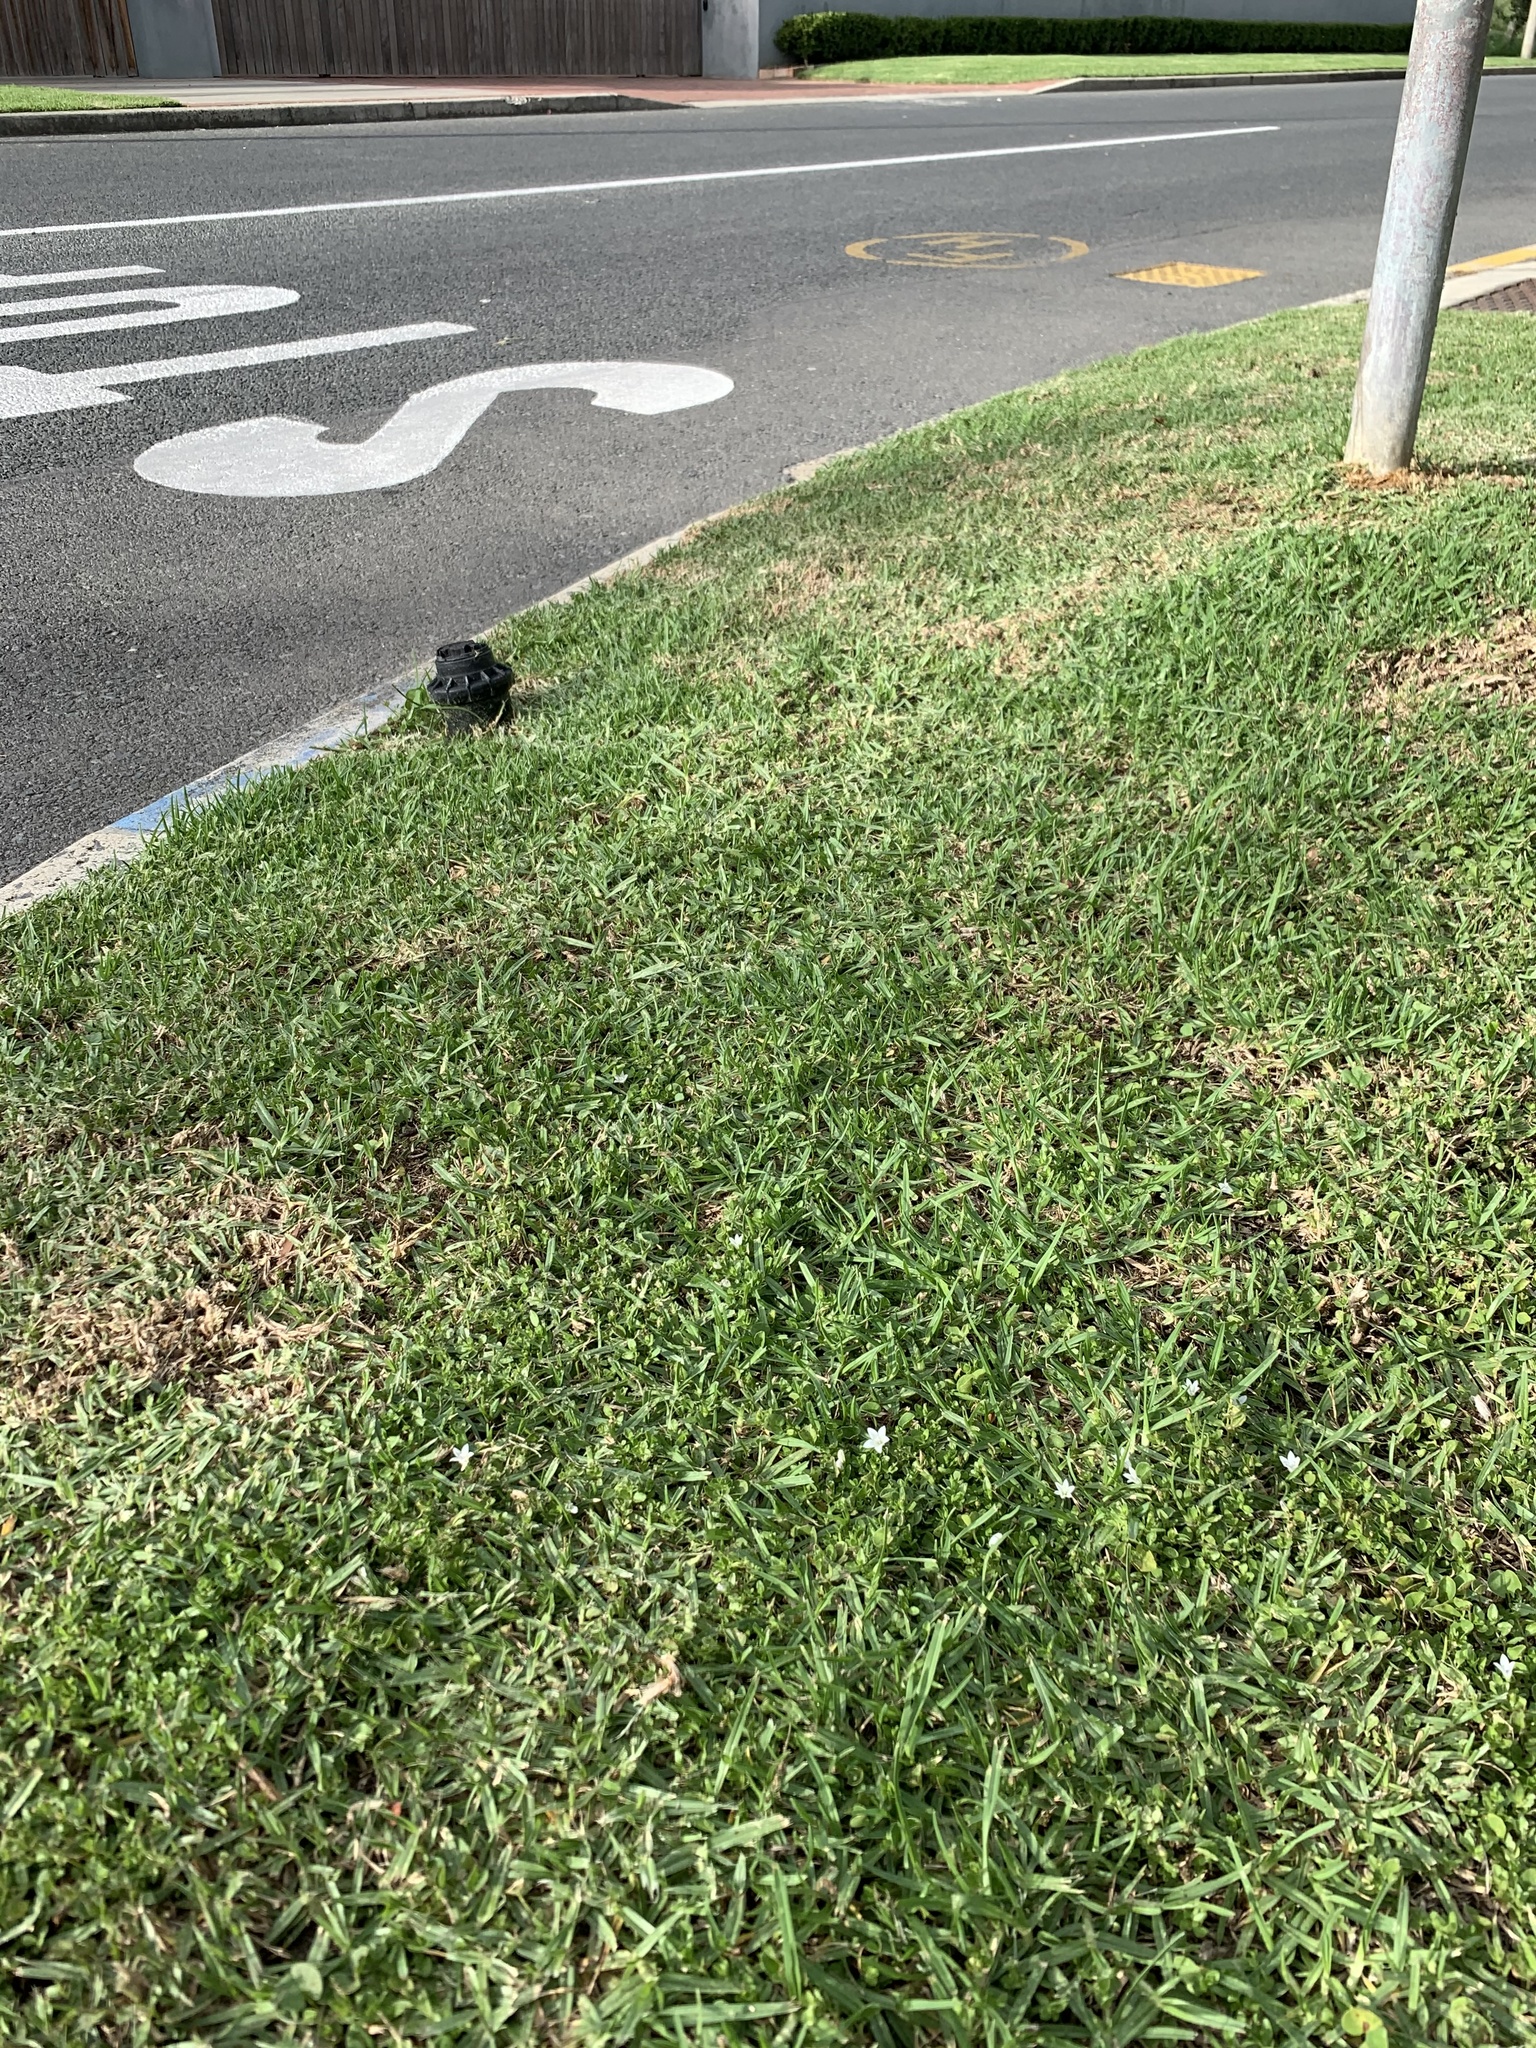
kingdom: Plantae
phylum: Tracheophyta
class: Magnoliopsida
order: Asterales
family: Campanulaceae
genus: Wahlenbergia
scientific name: Wahlenbergia procumbens
